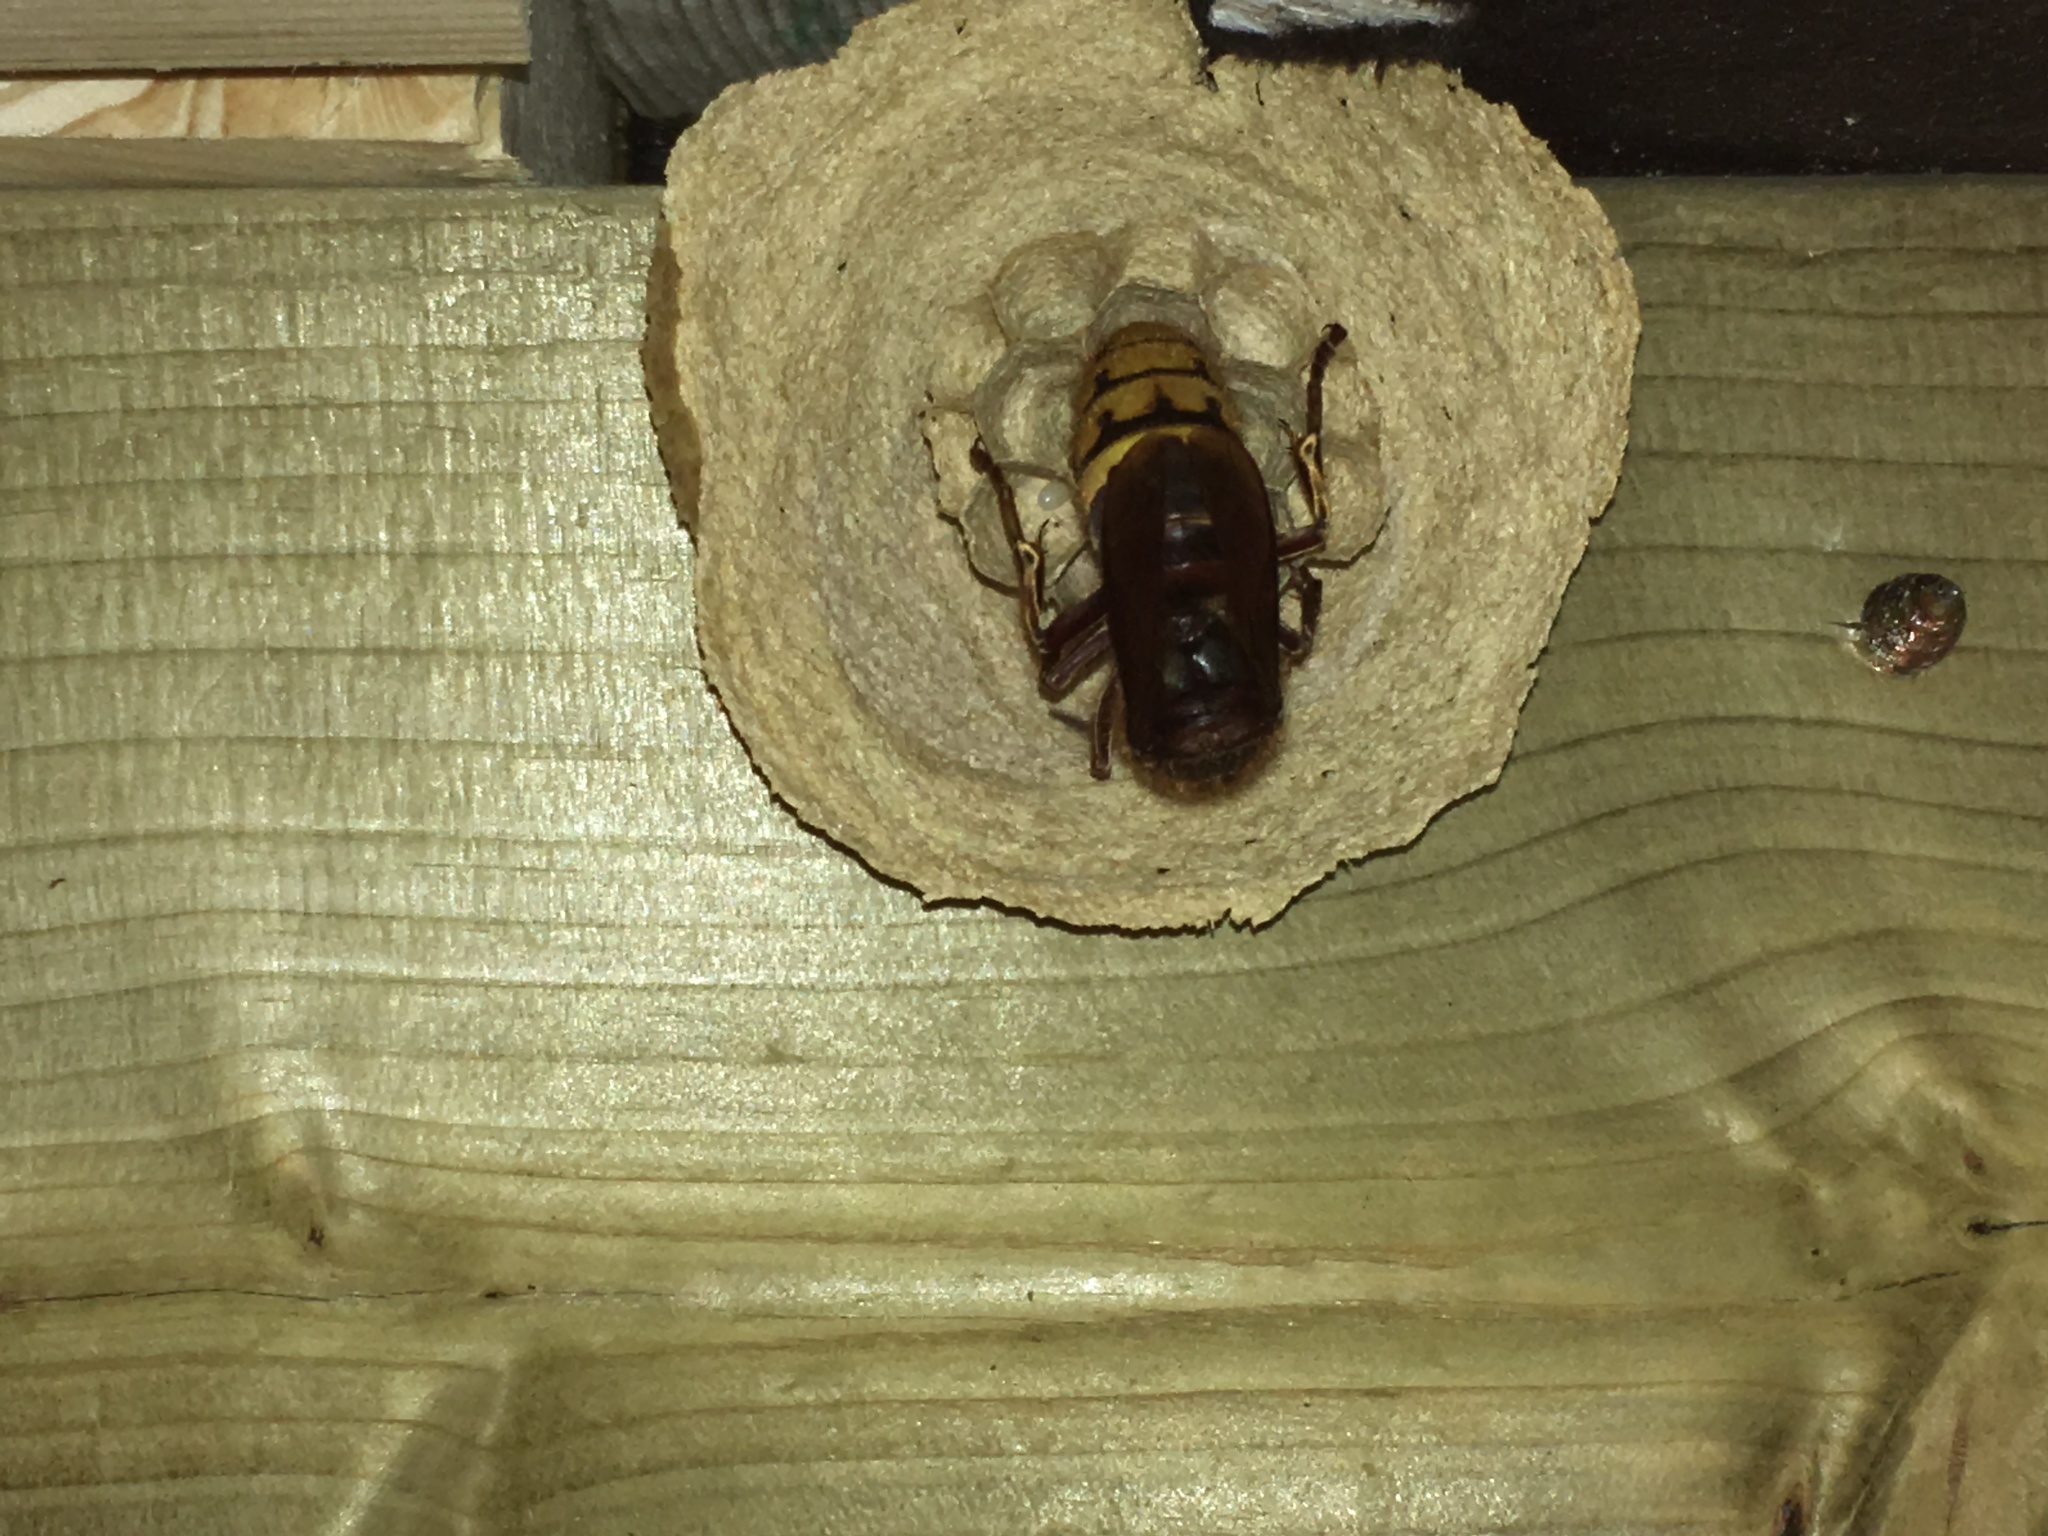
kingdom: Animalia
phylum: Arthropoda
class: Insecta
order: Hymenoptera
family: Vespidae
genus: Vespa
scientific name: Vespa crabro
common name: Hornet
